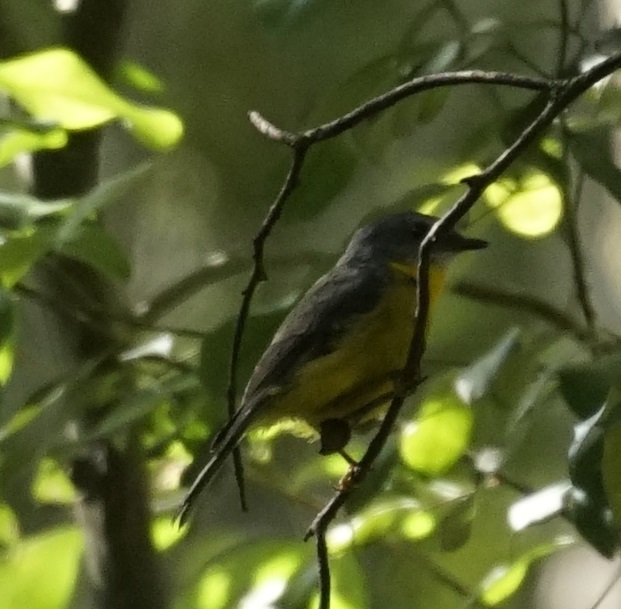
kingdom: Animalia
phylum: Chordata
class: Aves
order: Passeriformes
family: Petroicidae
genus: Eopsaltria
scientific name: Eopsaltria australis
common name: Eastern yellow robin
